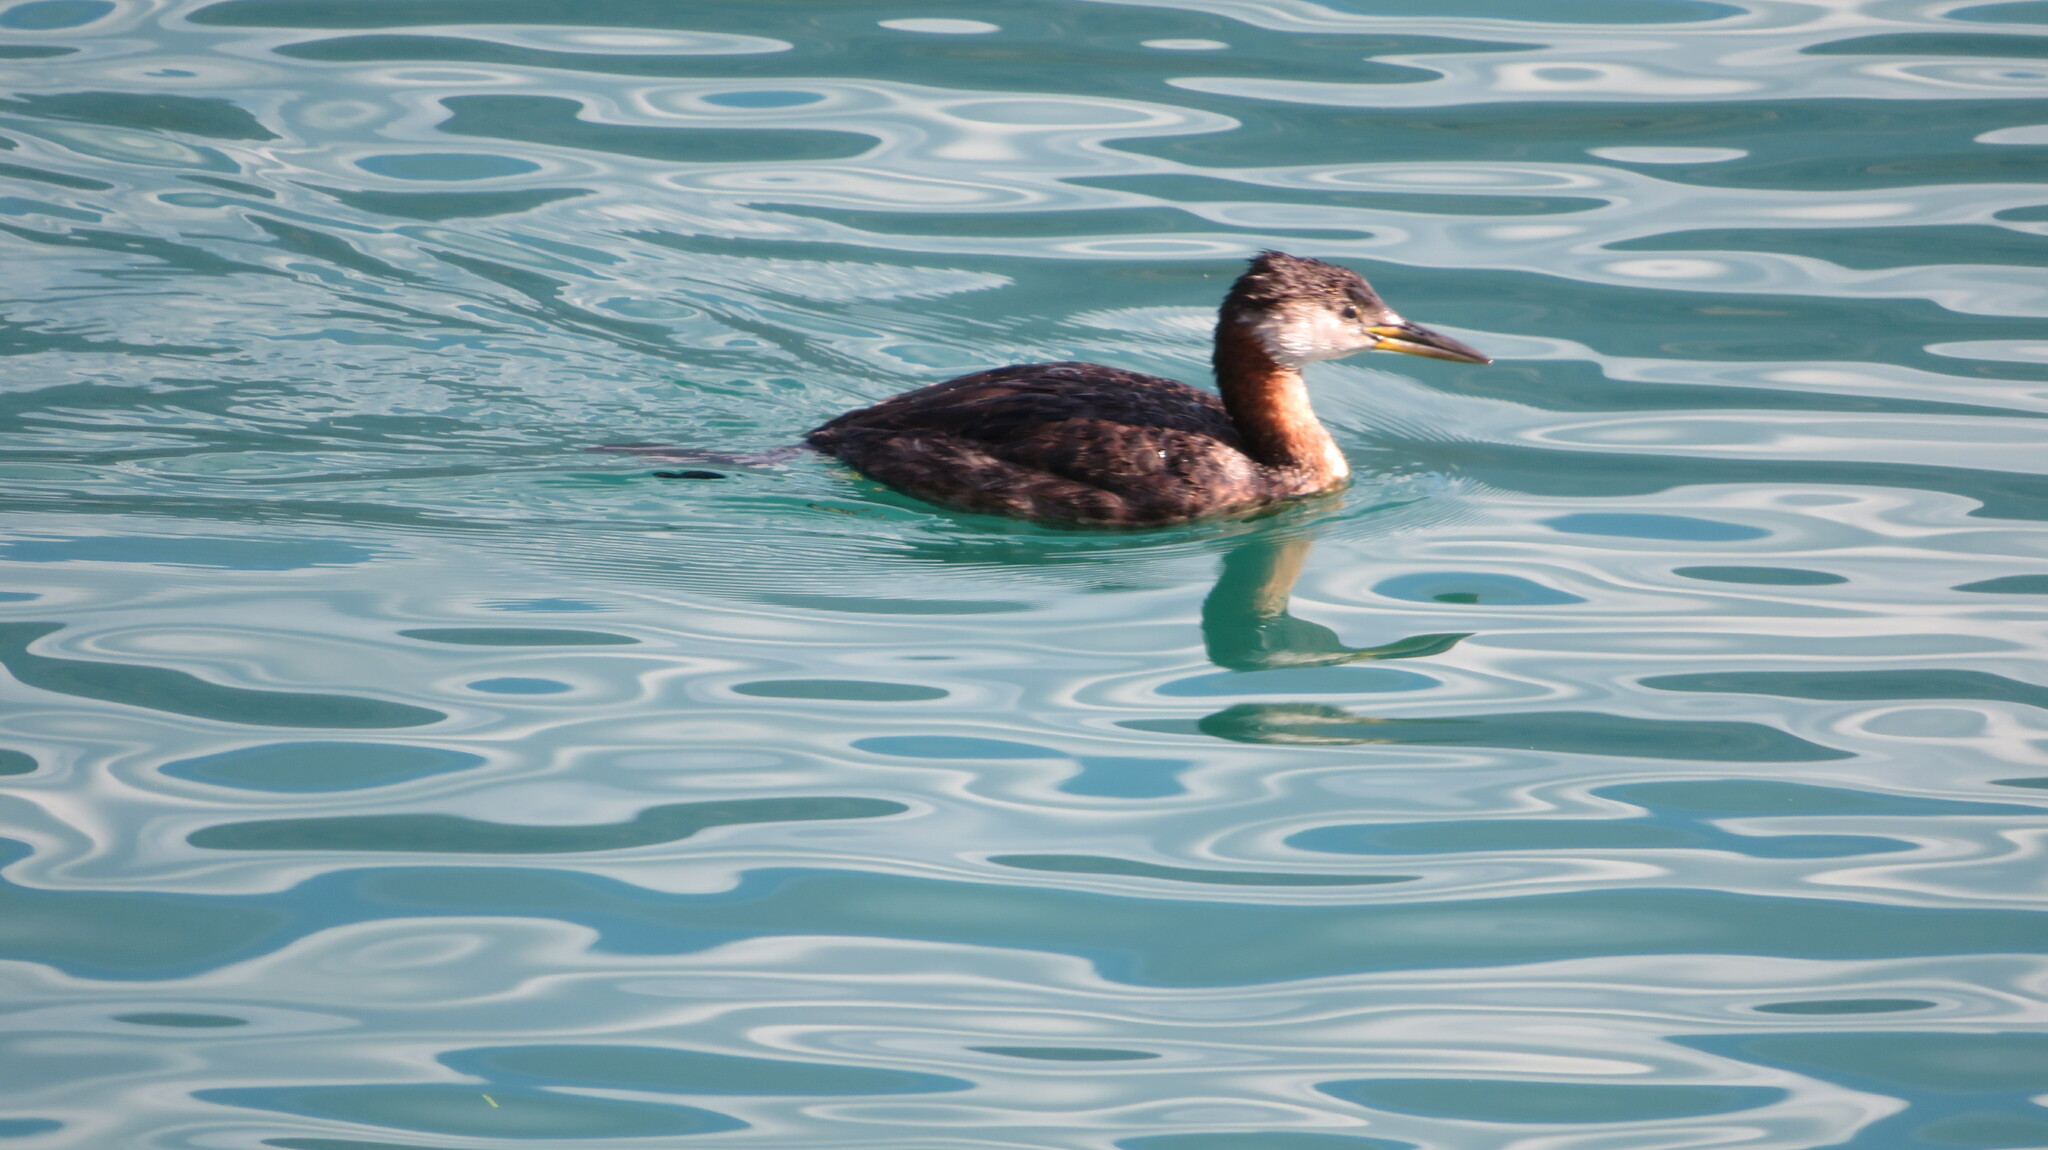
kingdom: Animalia
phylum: Chordata
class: Aves
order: Podicipediformes
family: Podicipedidae
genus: Podiceps
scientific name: Podiceps grisegena
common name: Red-necked grebe
